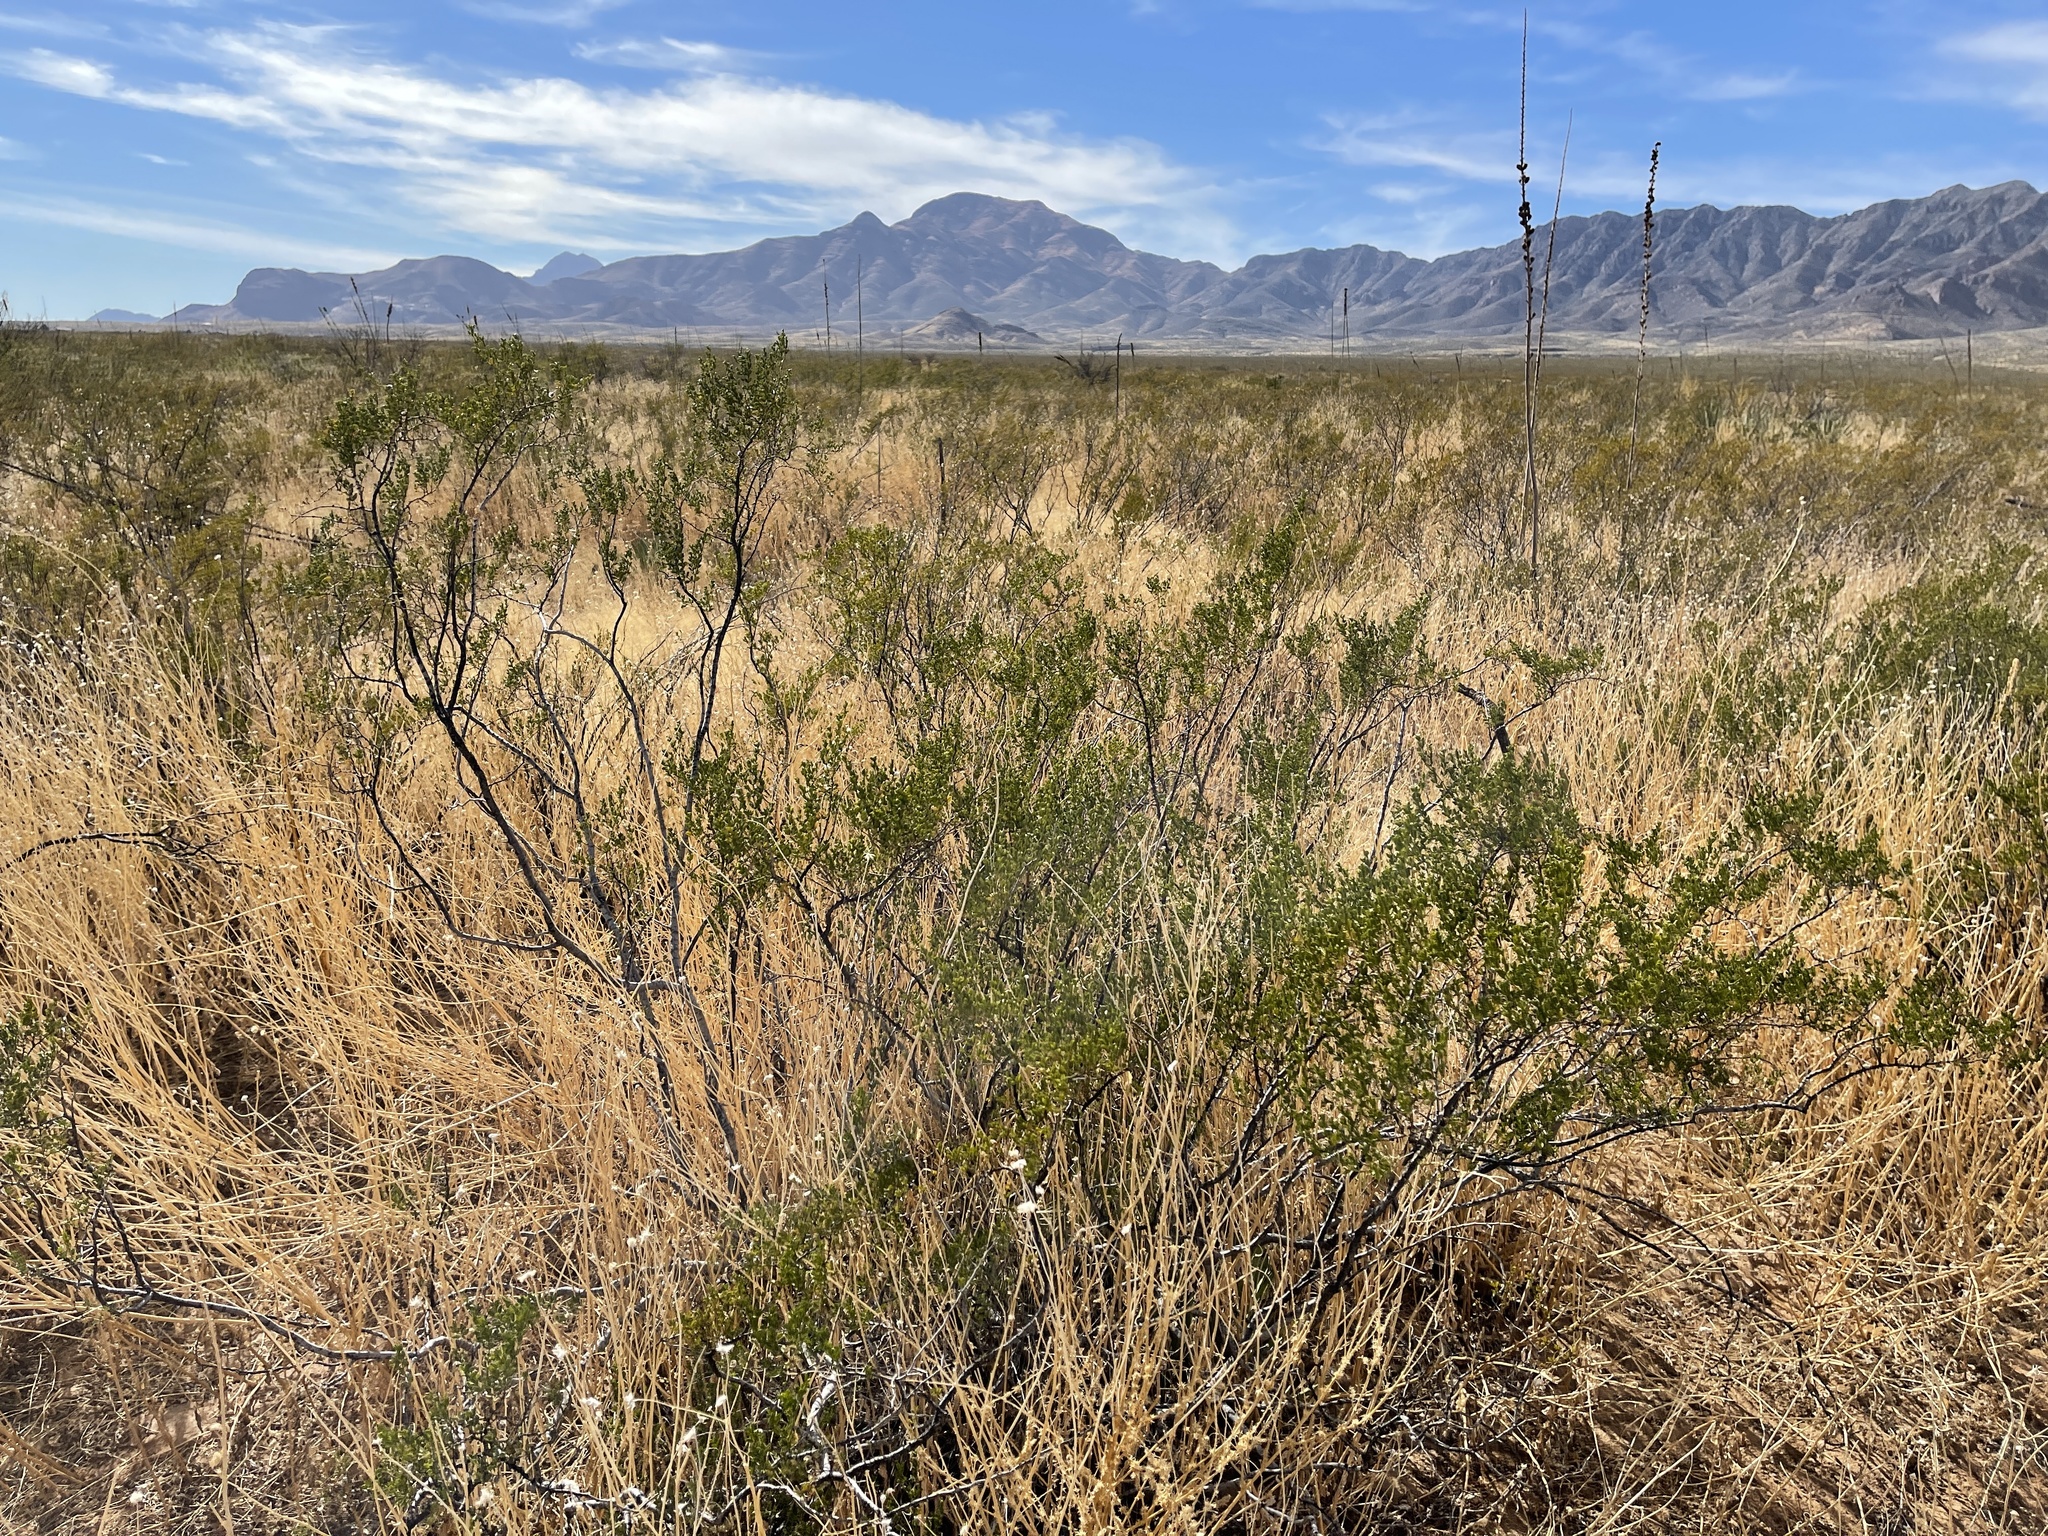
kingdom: Plantae
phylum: Tracheophyta
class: Magnoliopsida
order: Zygophyllales
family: Zygophyllaceae
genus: Larrea
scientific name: Larrea tridentata
